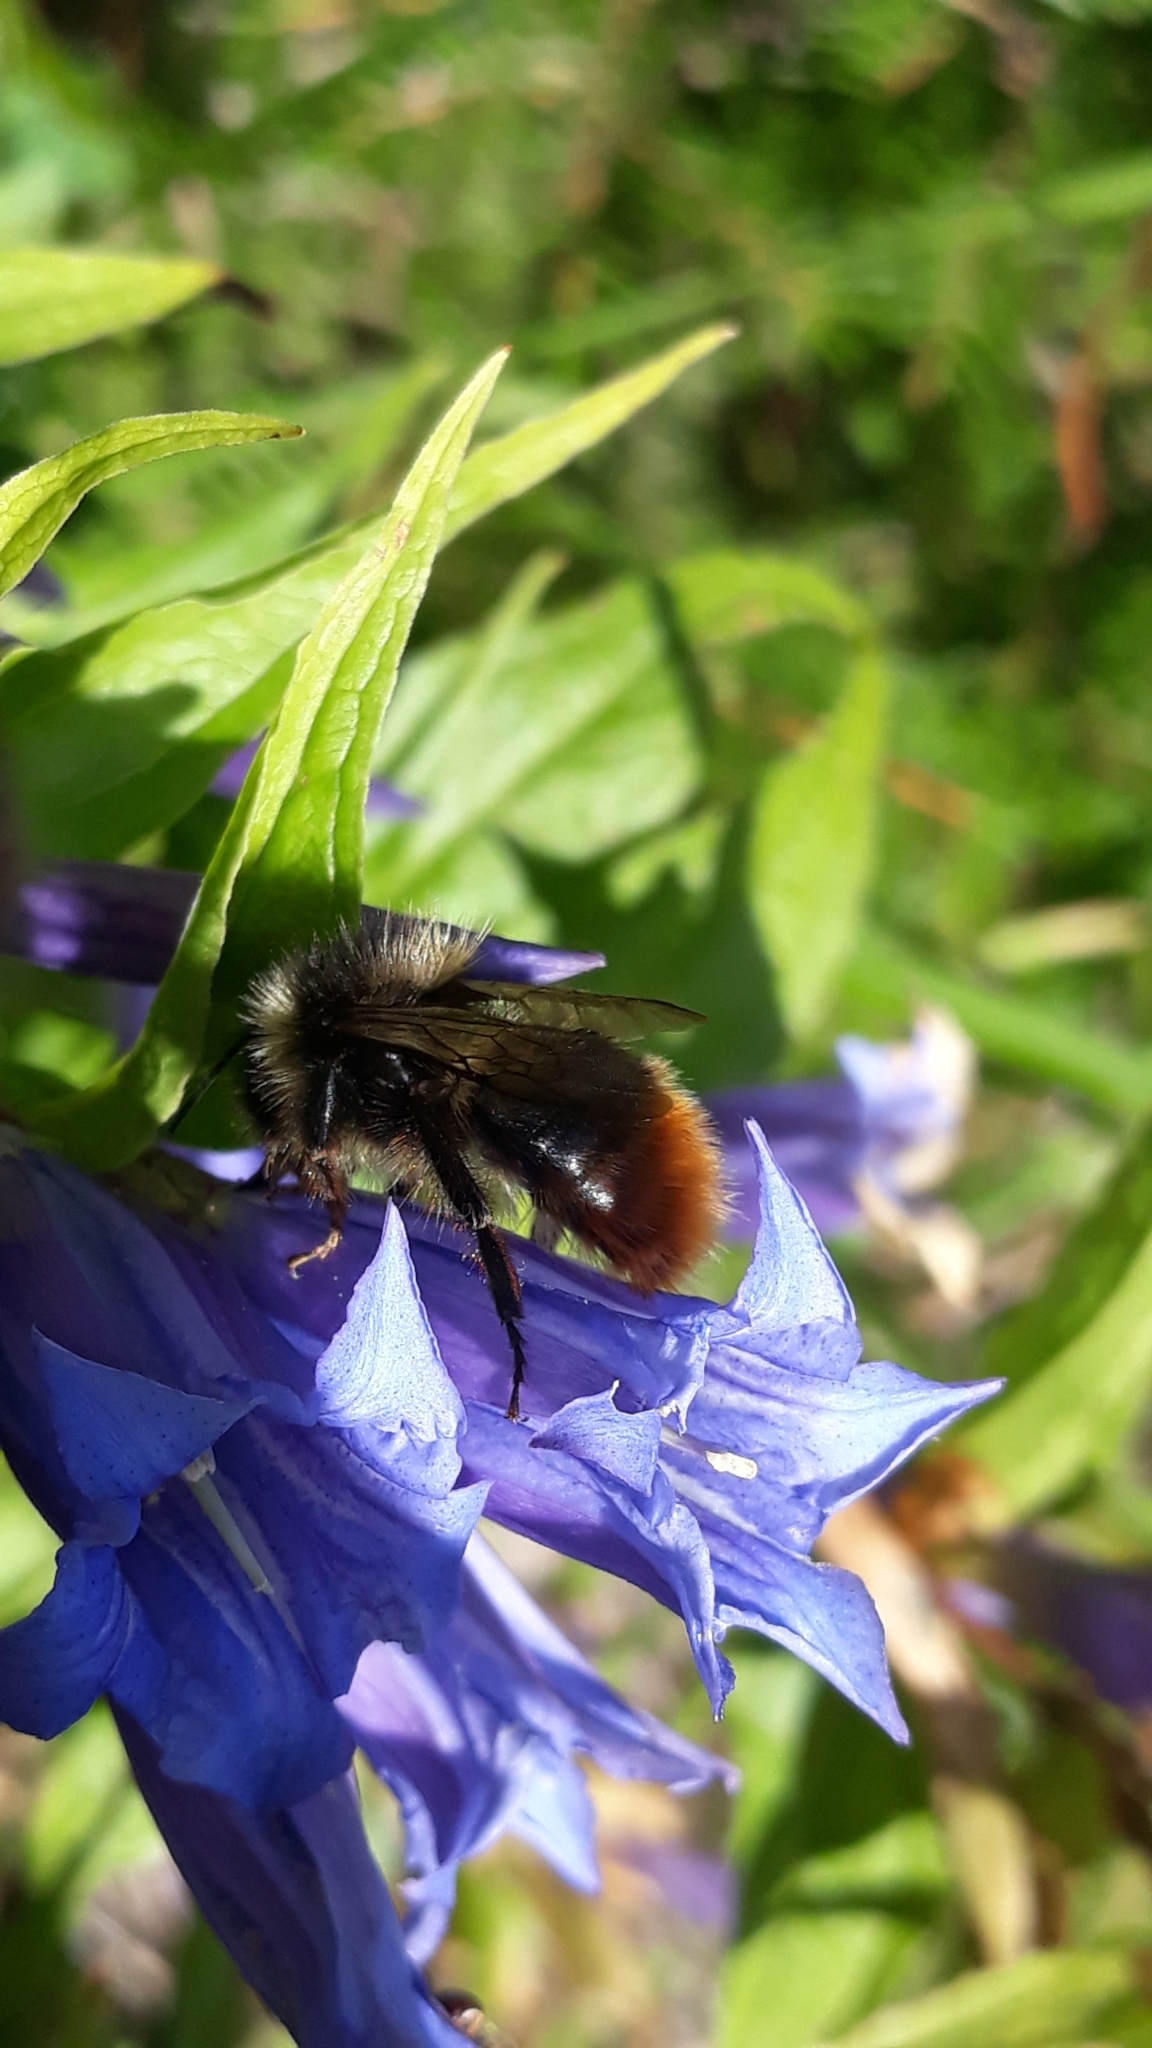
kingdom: Animalia
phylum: Arthropoda
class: Insecta
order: Hymenoptera
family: Apidae
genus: Bombus
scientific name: Bombus wurflenii
